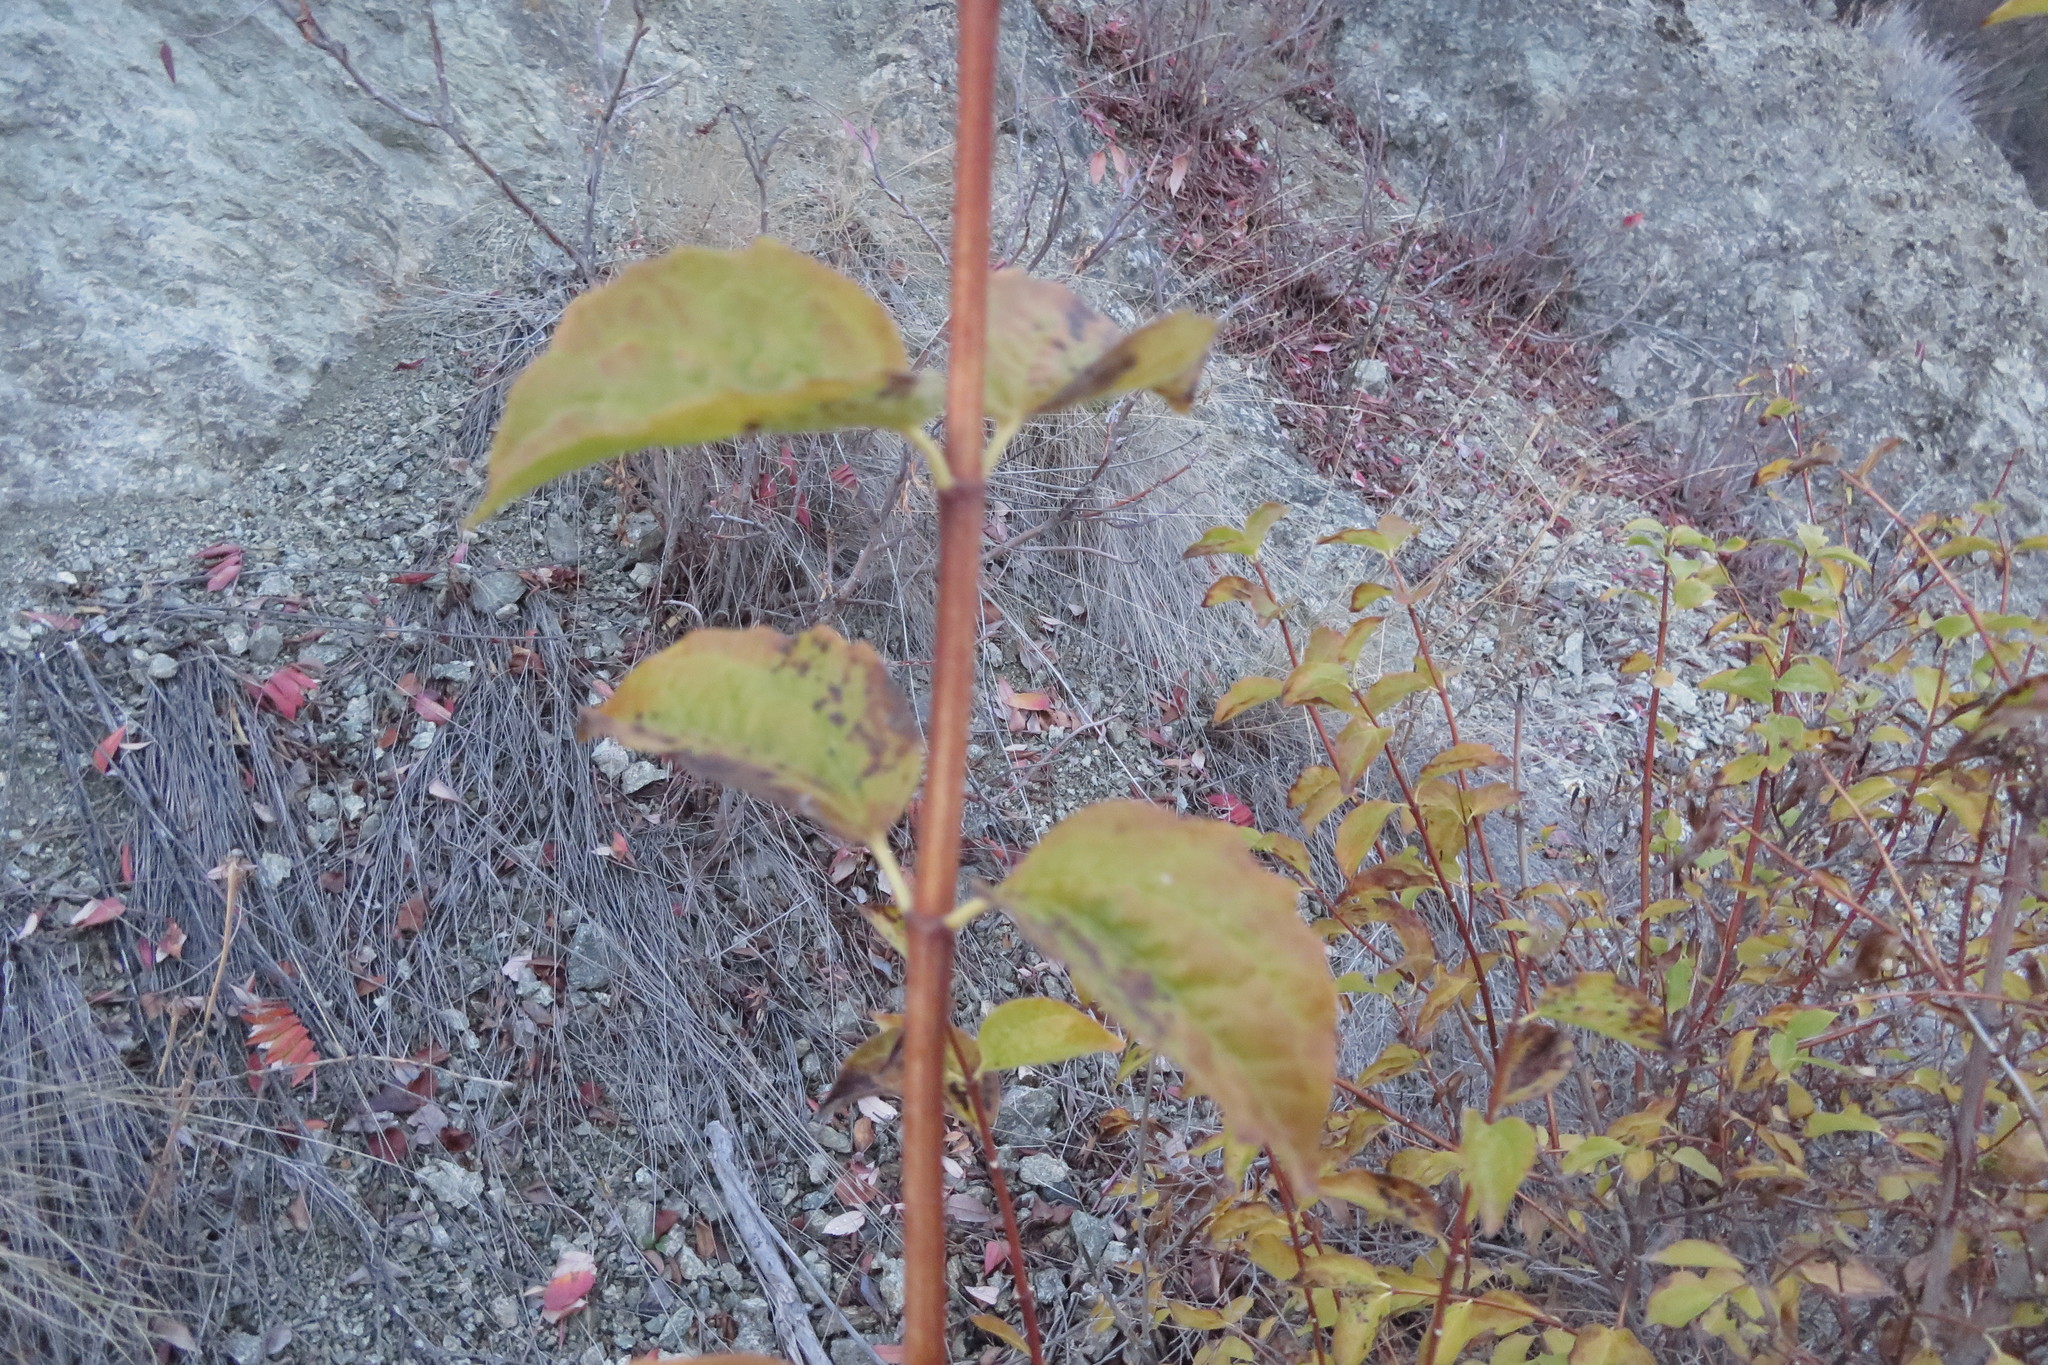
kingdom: Plantae
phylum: Tracheophyta
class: Magnoliopsida
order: Cornales
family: Hydrangeaceae
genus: Philadelphus
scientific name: Philadelphus lewisii
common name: Lewis's mock orange
